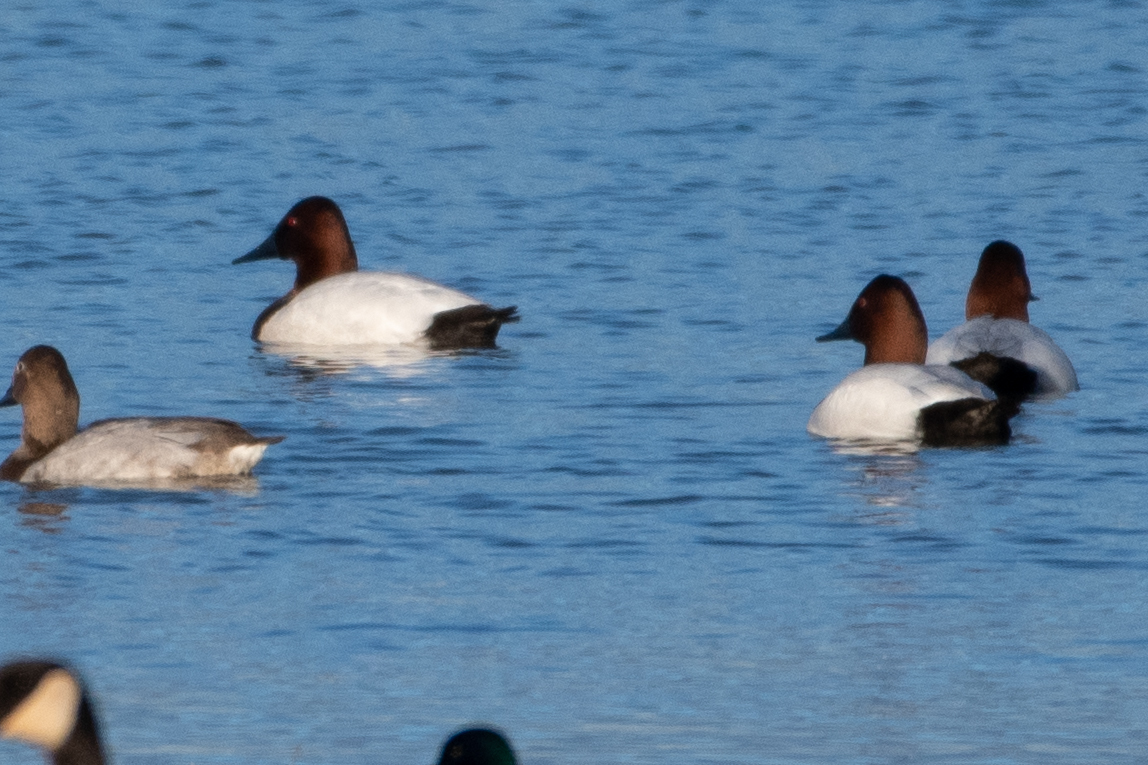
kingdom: Animalia
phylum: Chordata
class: Aves
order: Anseriformes
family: Anatidae
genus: Aythya
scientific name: Aythya valisineria
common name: Canvasback
